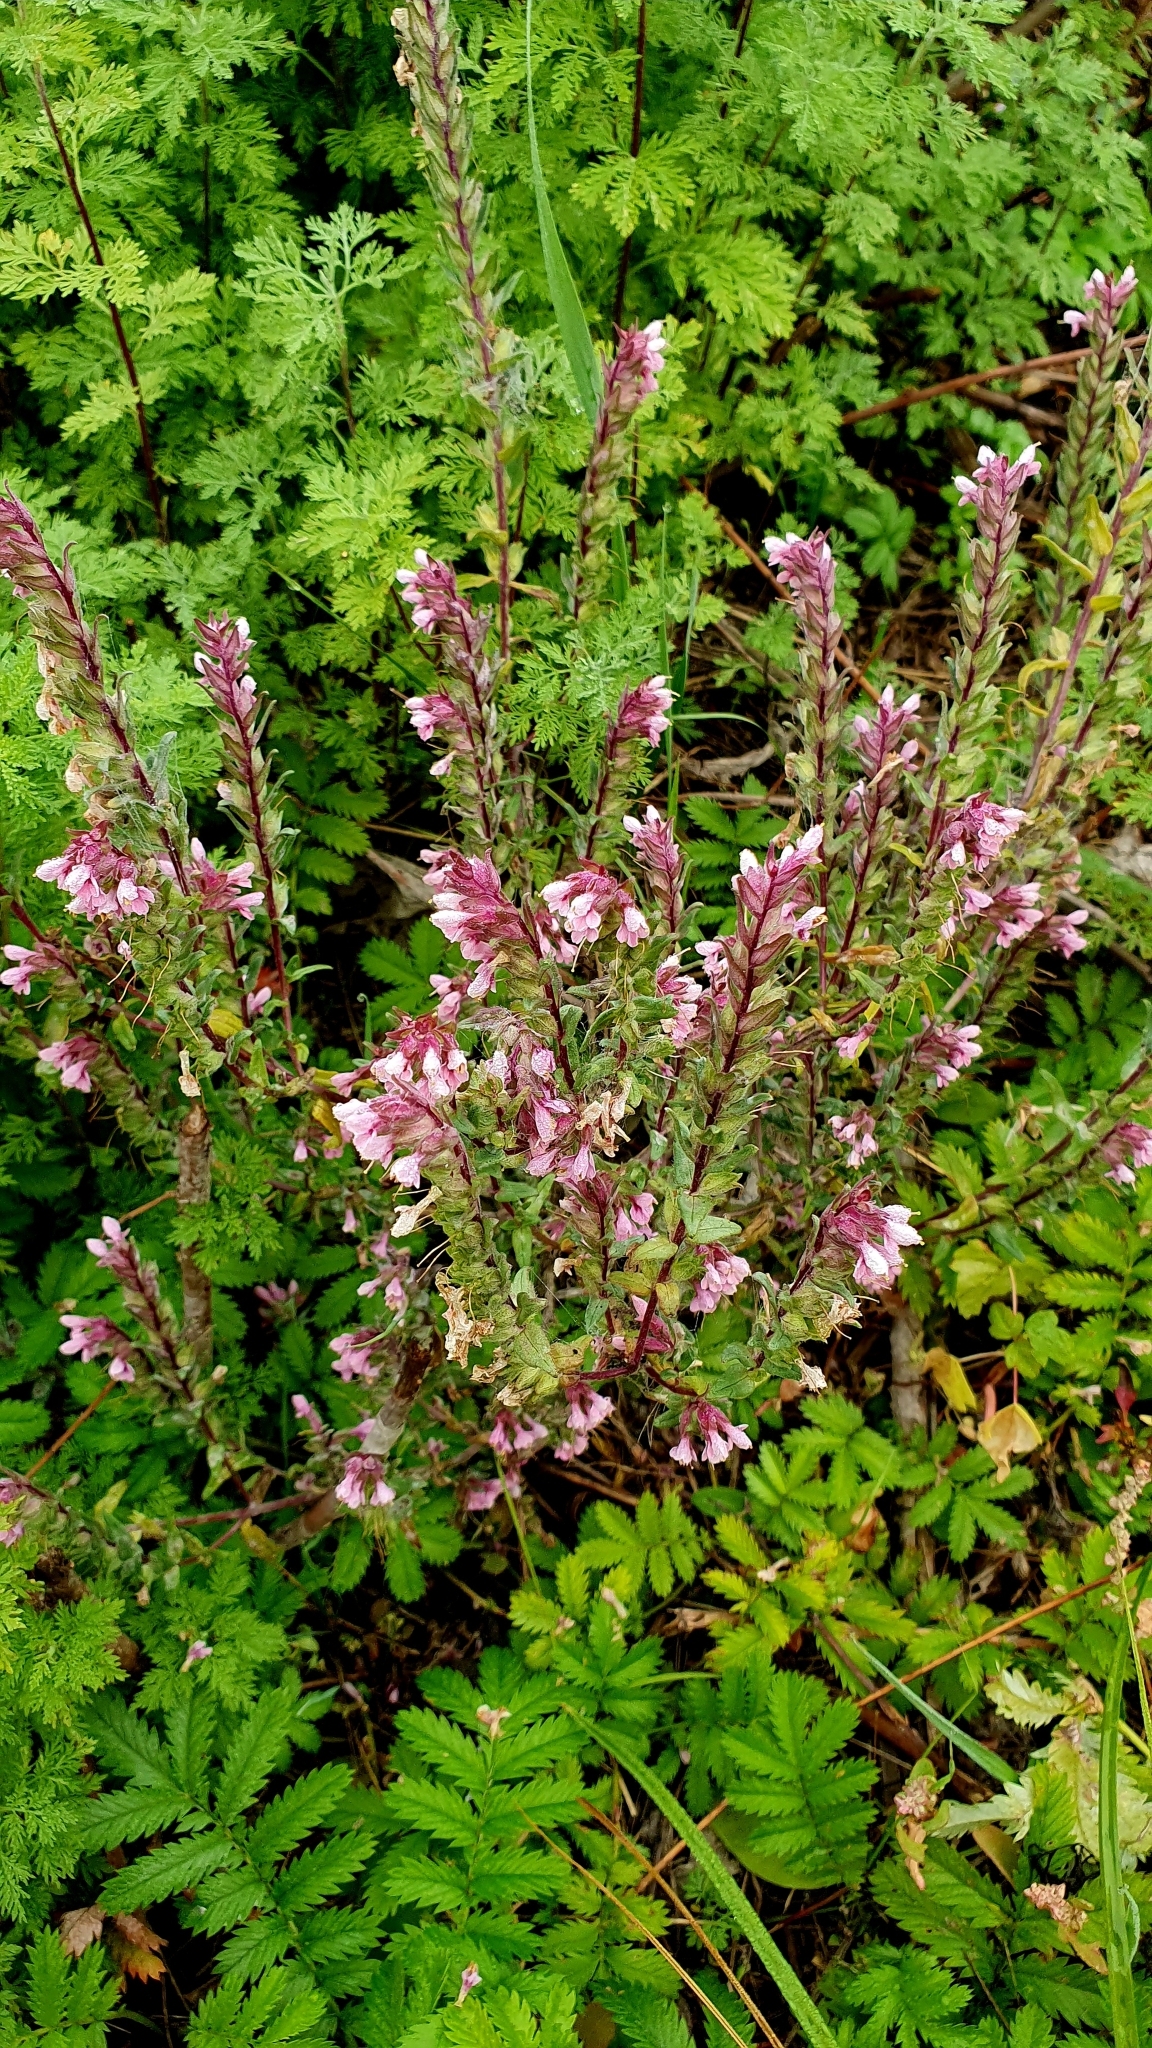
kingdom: Plantae
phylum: Tracheophyta
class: Magnoliopsida
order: Lamiales
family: Orobanchaceae
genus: Odontites
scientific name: Odontites vulgaris
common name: Broomrape
